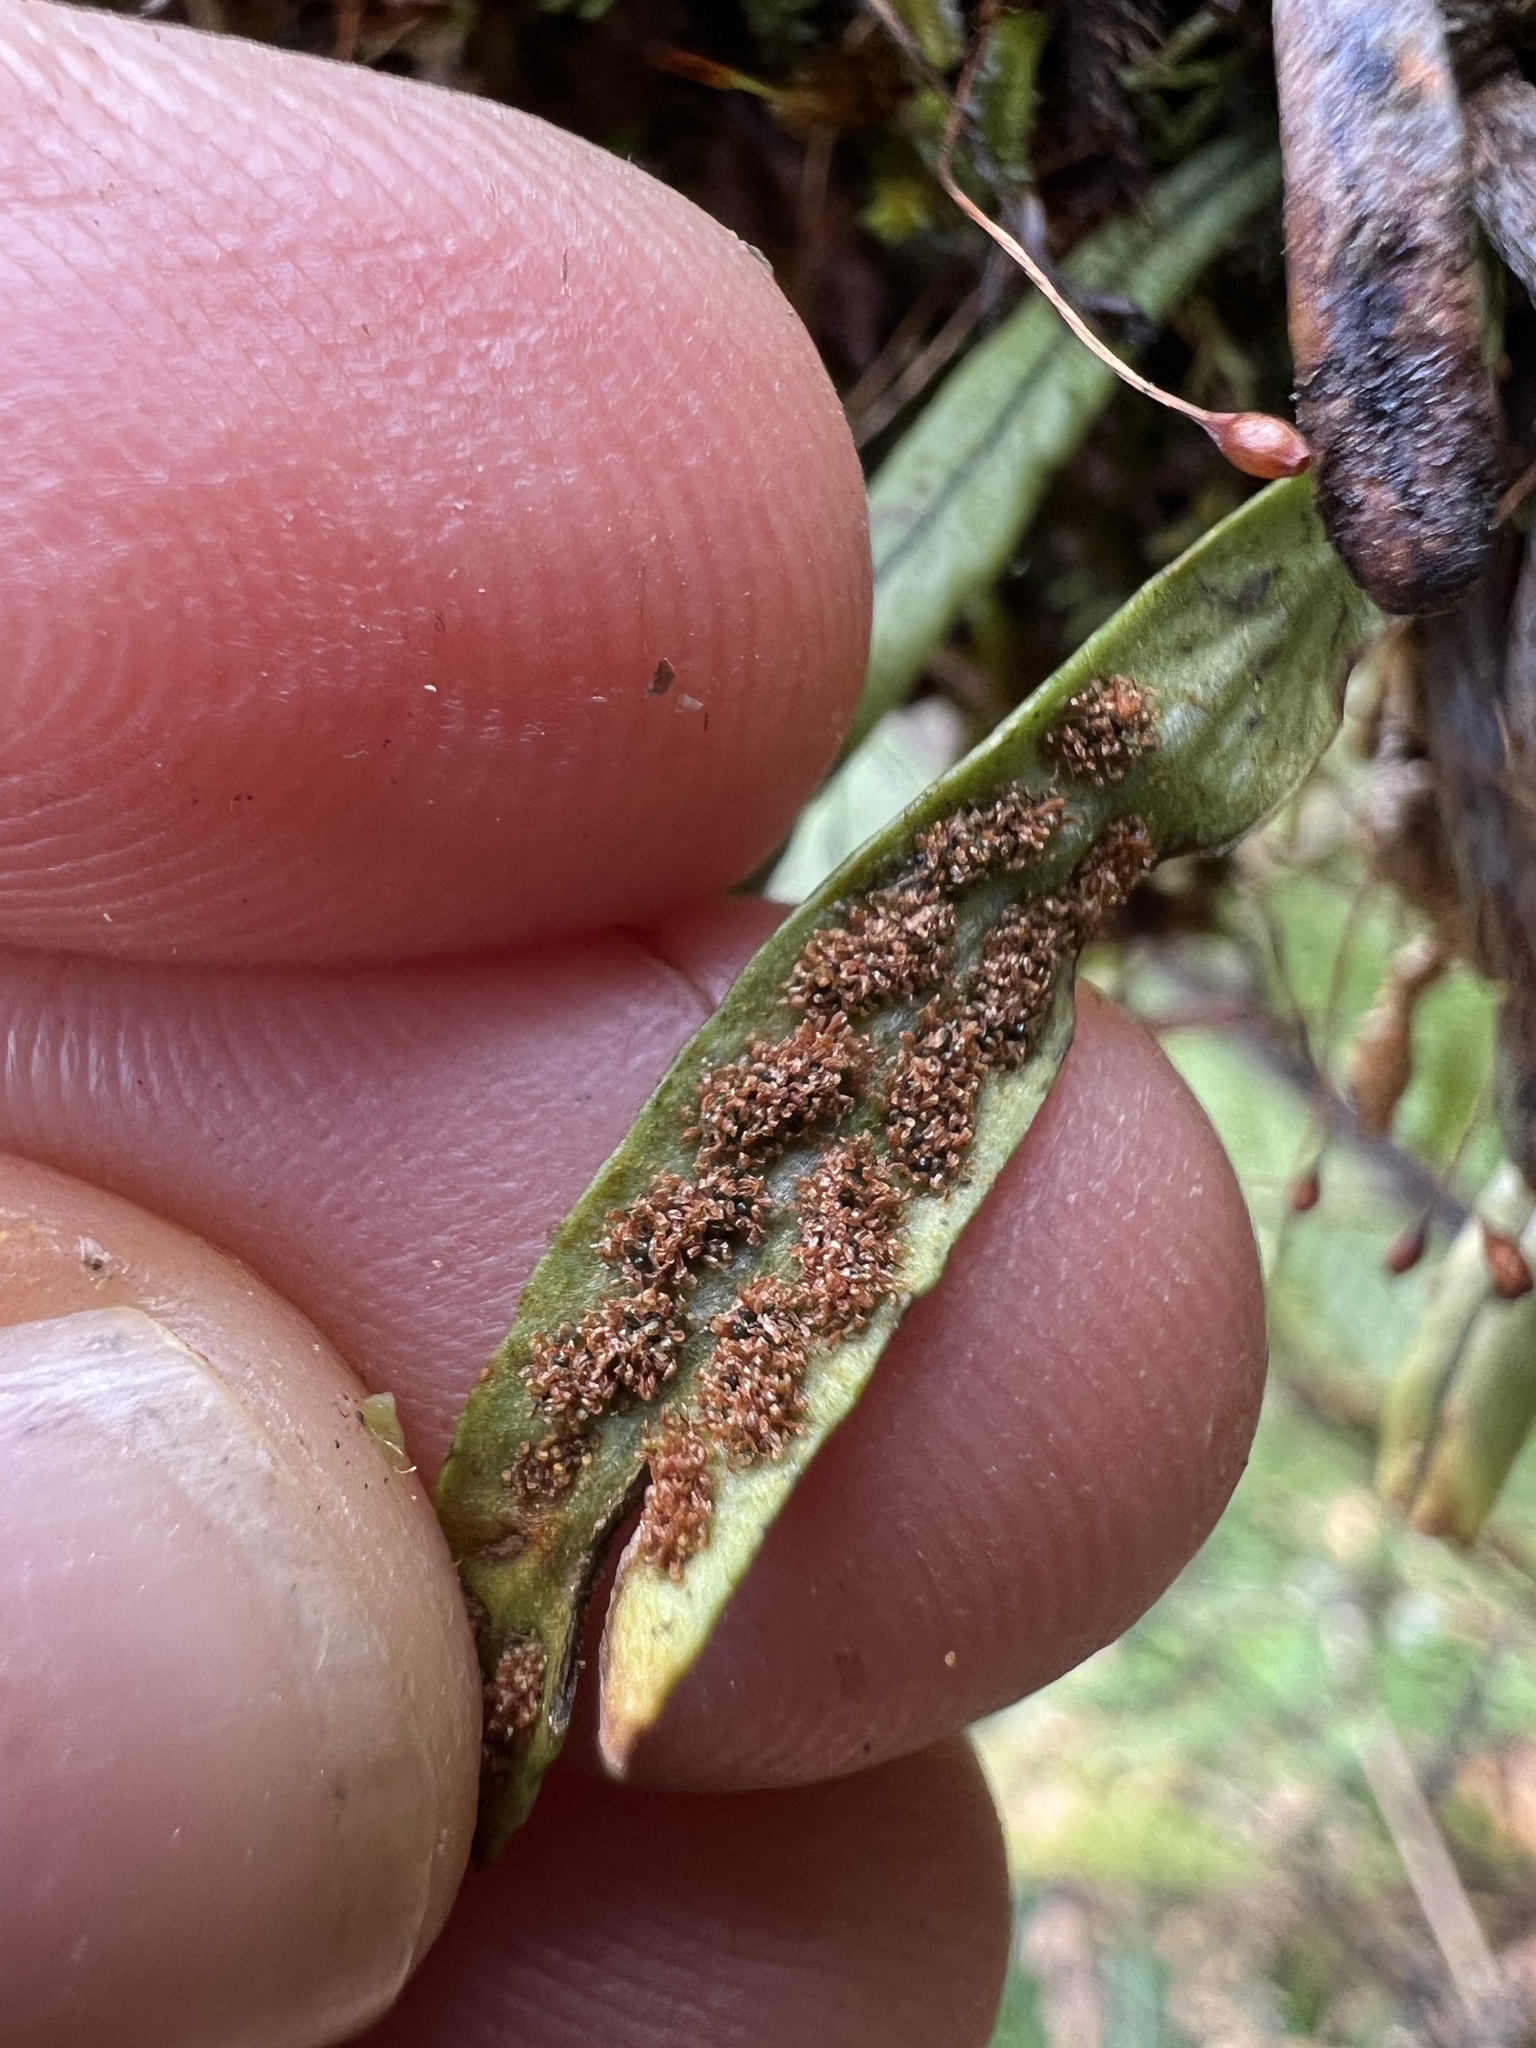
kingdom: Plantae
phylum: Tracheophyta
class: Polypodiopsida
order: Polypodiales
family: Polypodiaceae
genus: Notogrammitis
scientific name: Notogrammitis angustifolia
